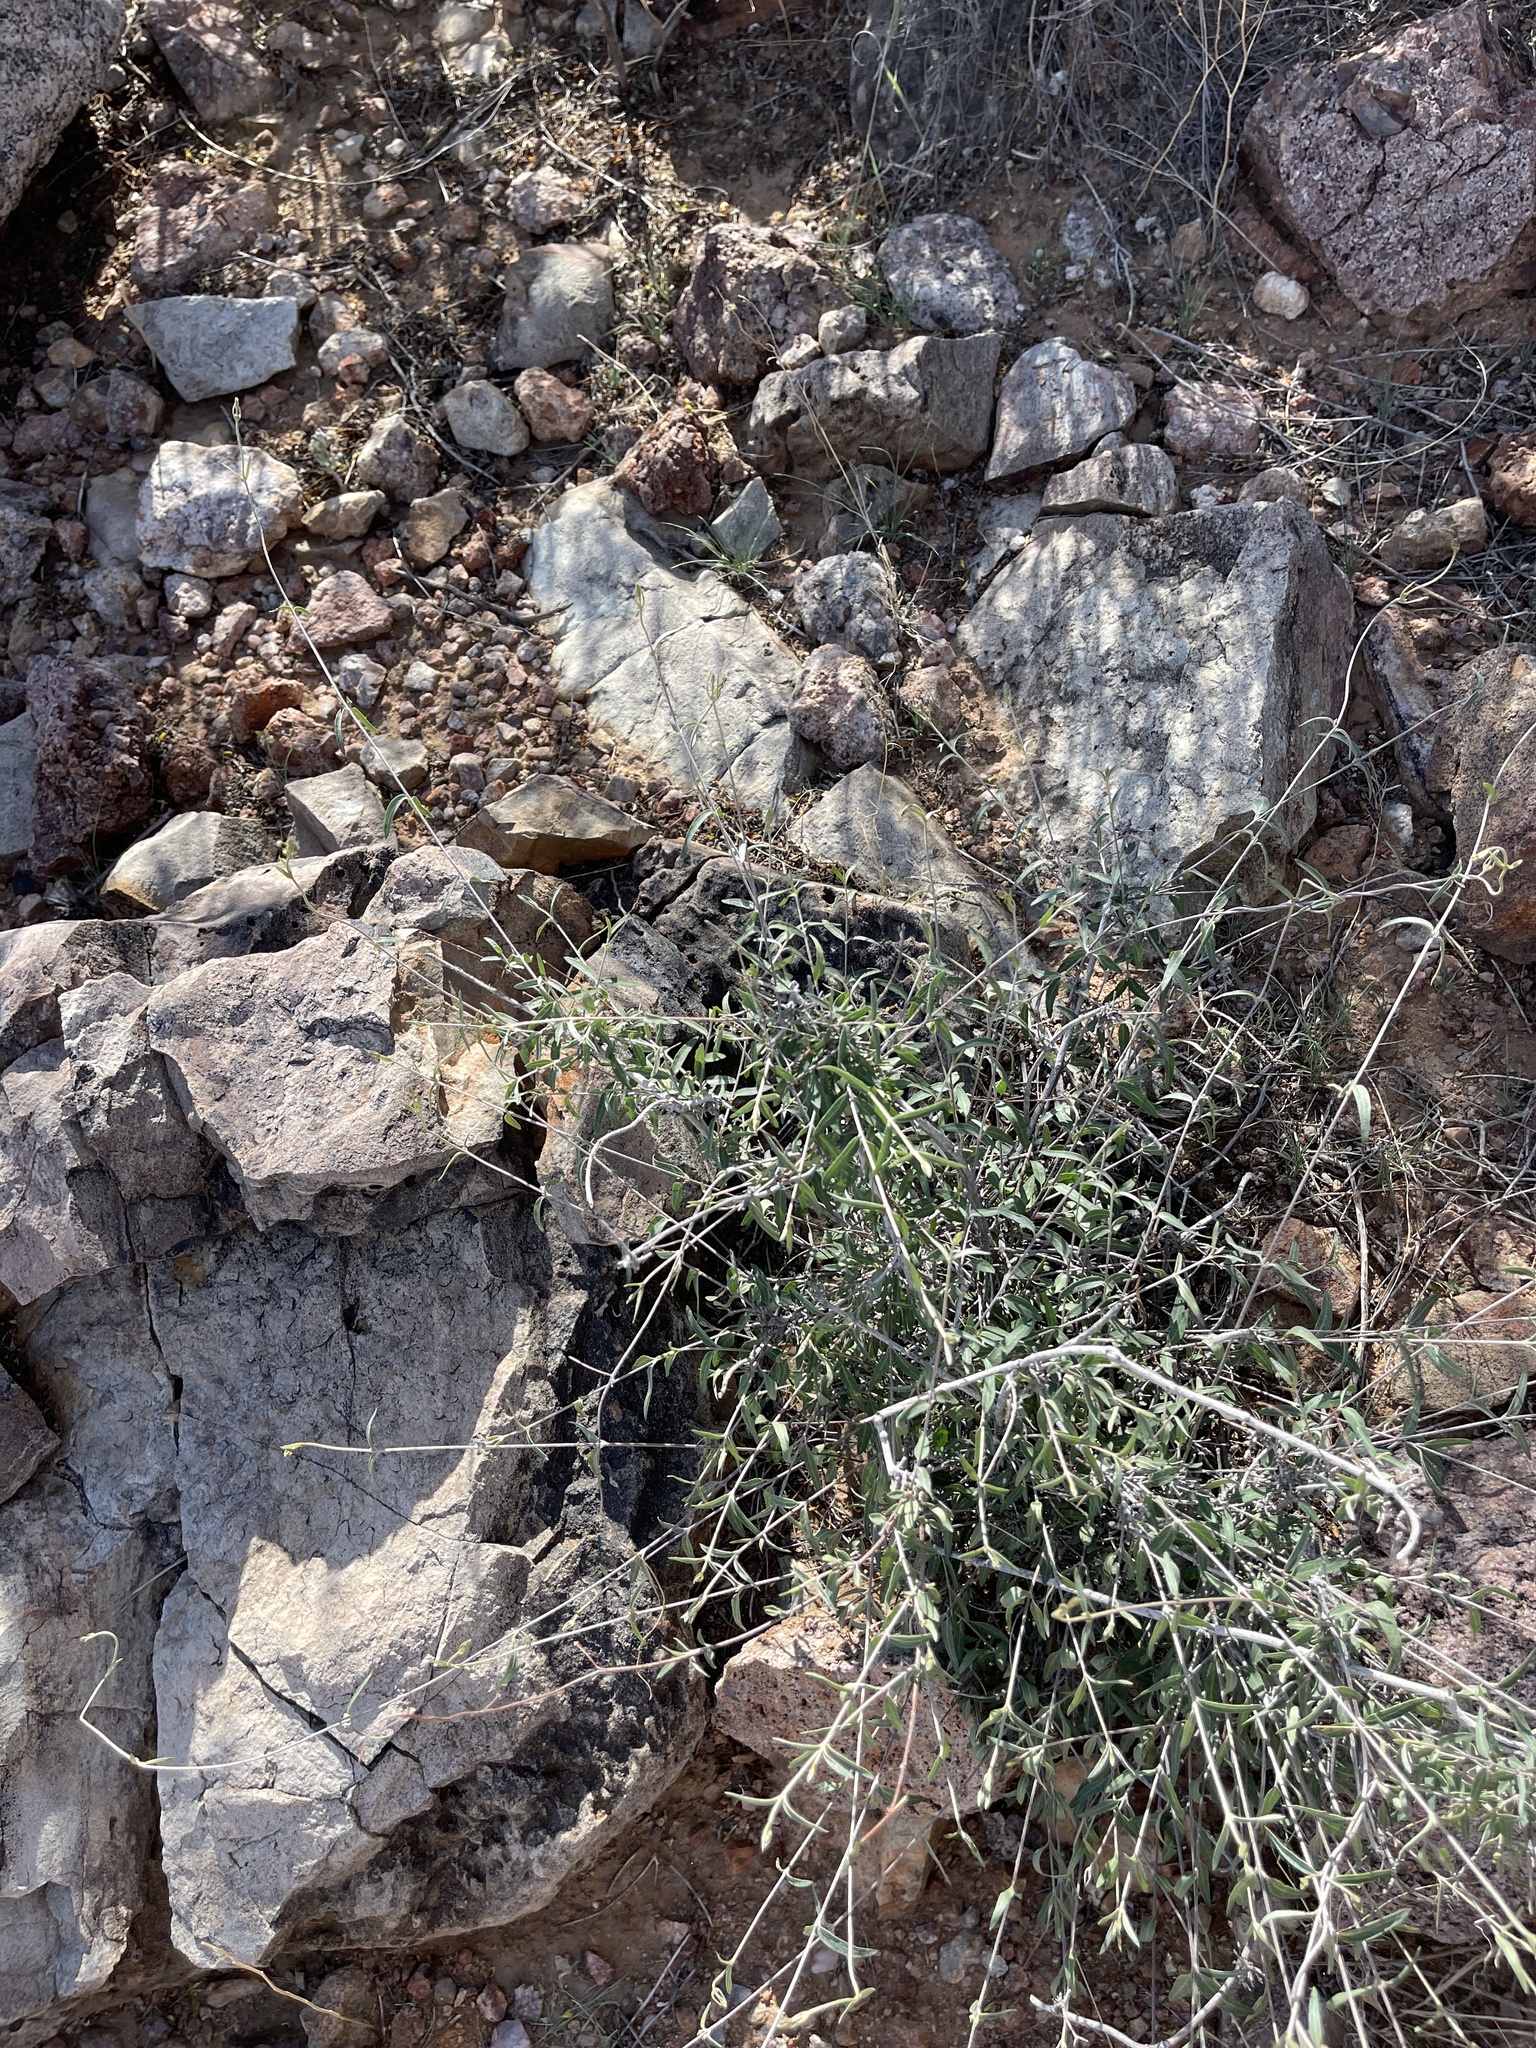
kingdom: Plantae
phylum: Tracheophyta
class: Magnoliopsida
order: Malpighiales
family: Malpighiaceae
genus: Cottsia
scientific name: Cottsia gracilis
